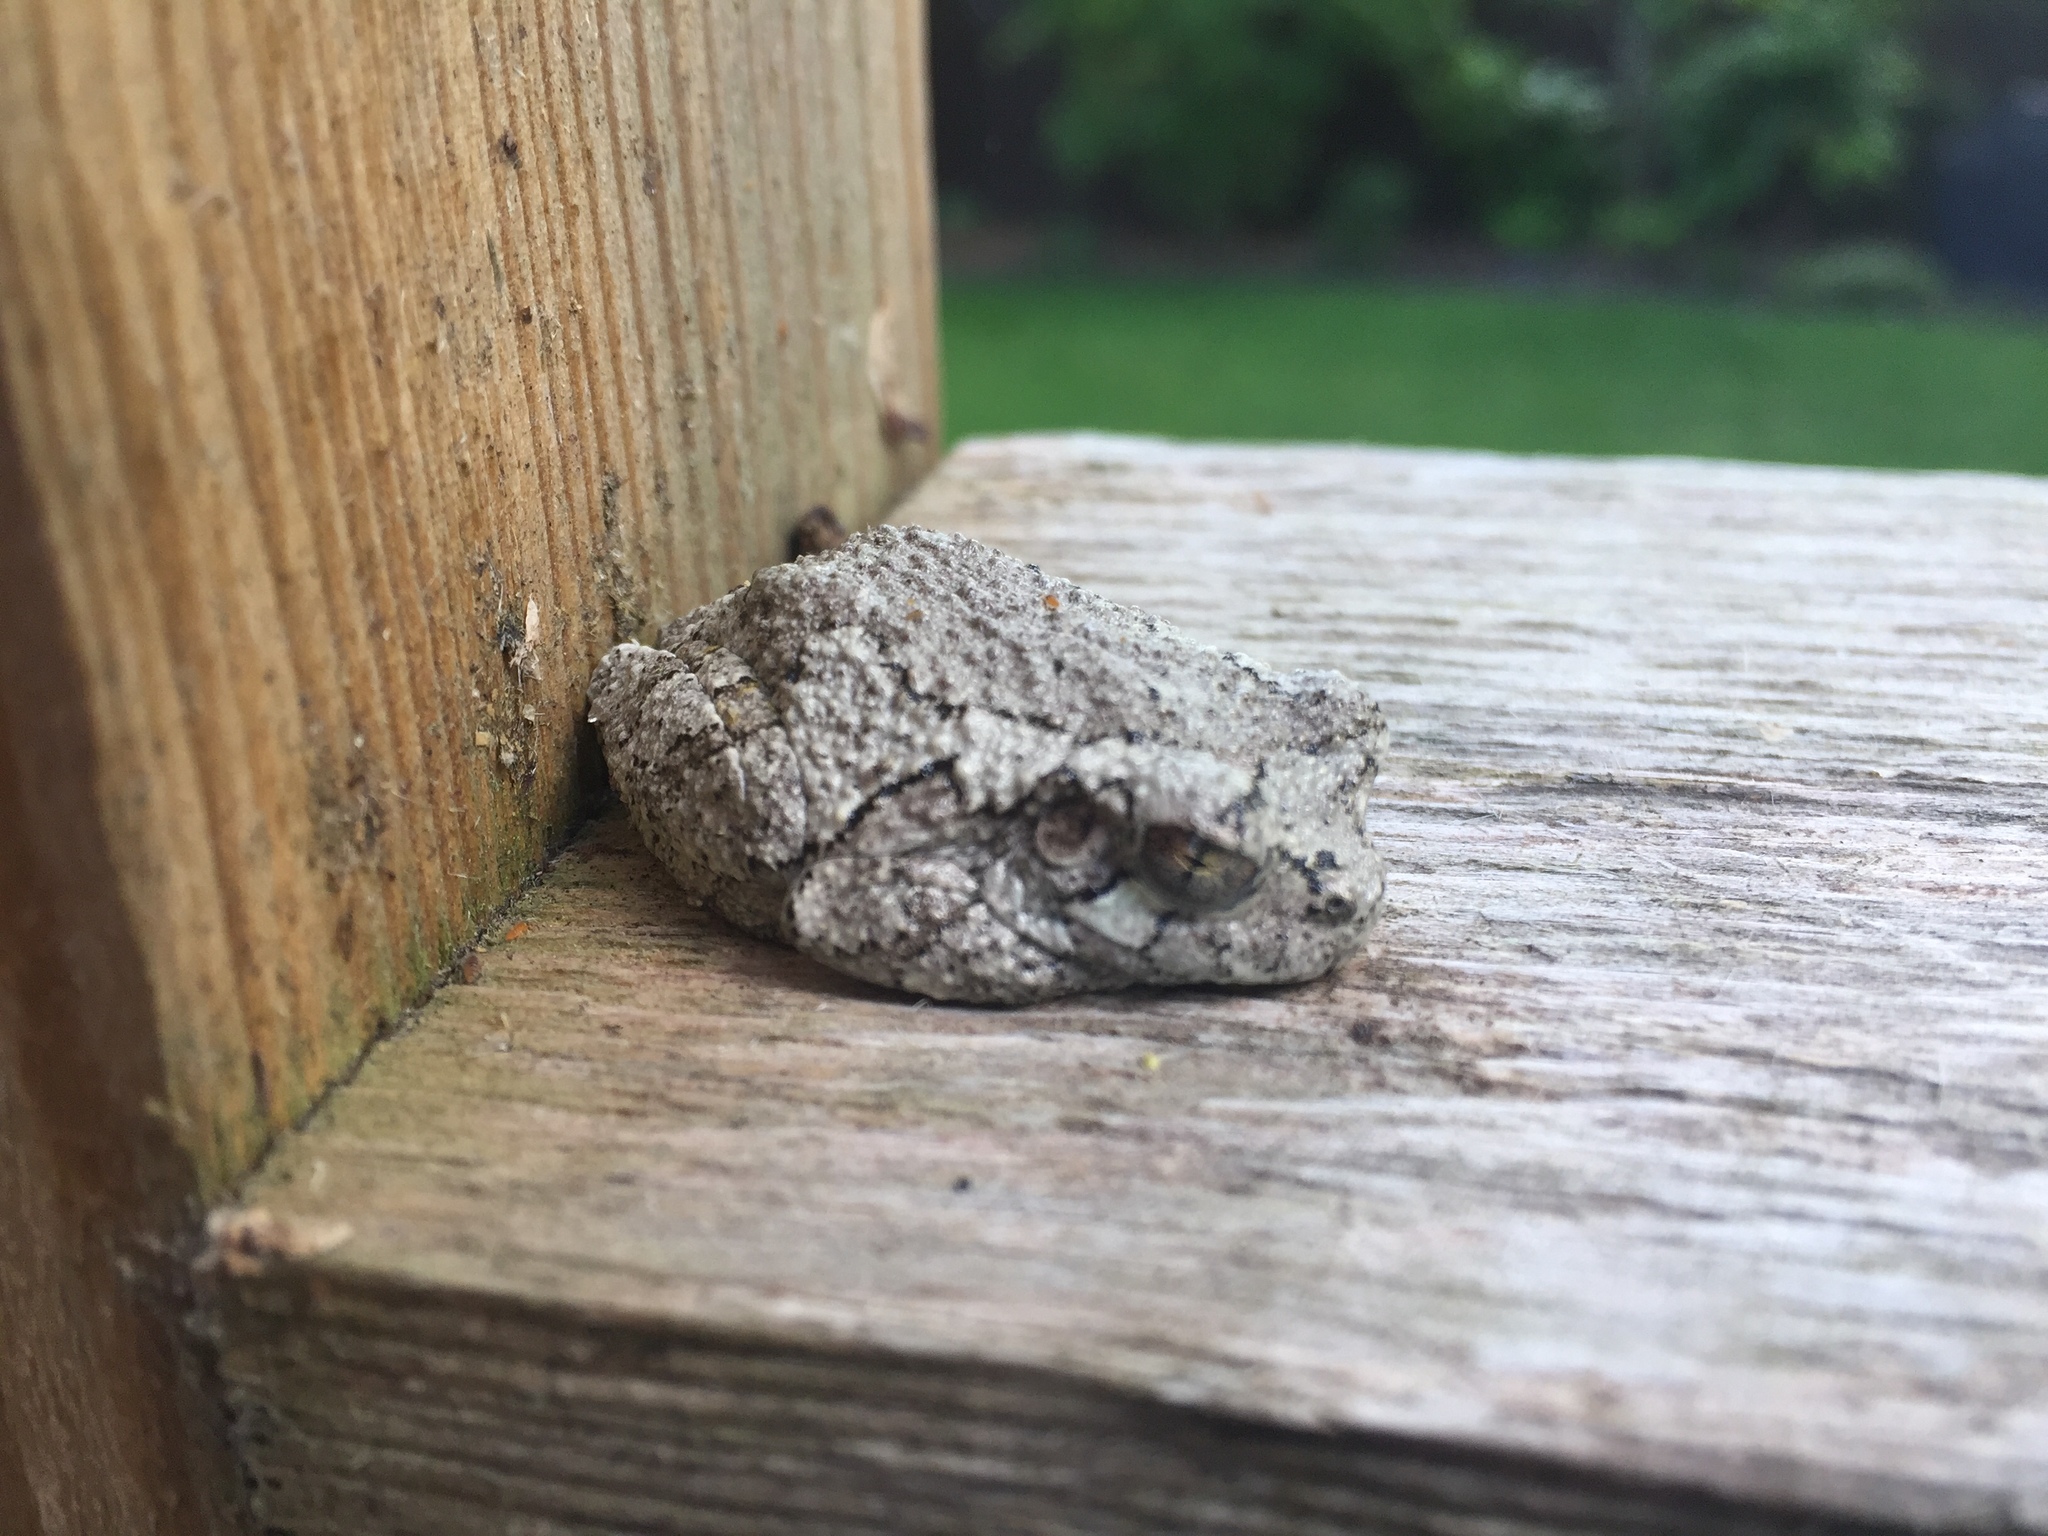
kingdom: Animalia
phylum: Chordata
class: Amphibia
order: Anura
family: Hylidae
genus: Hyla
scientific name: Hyla
